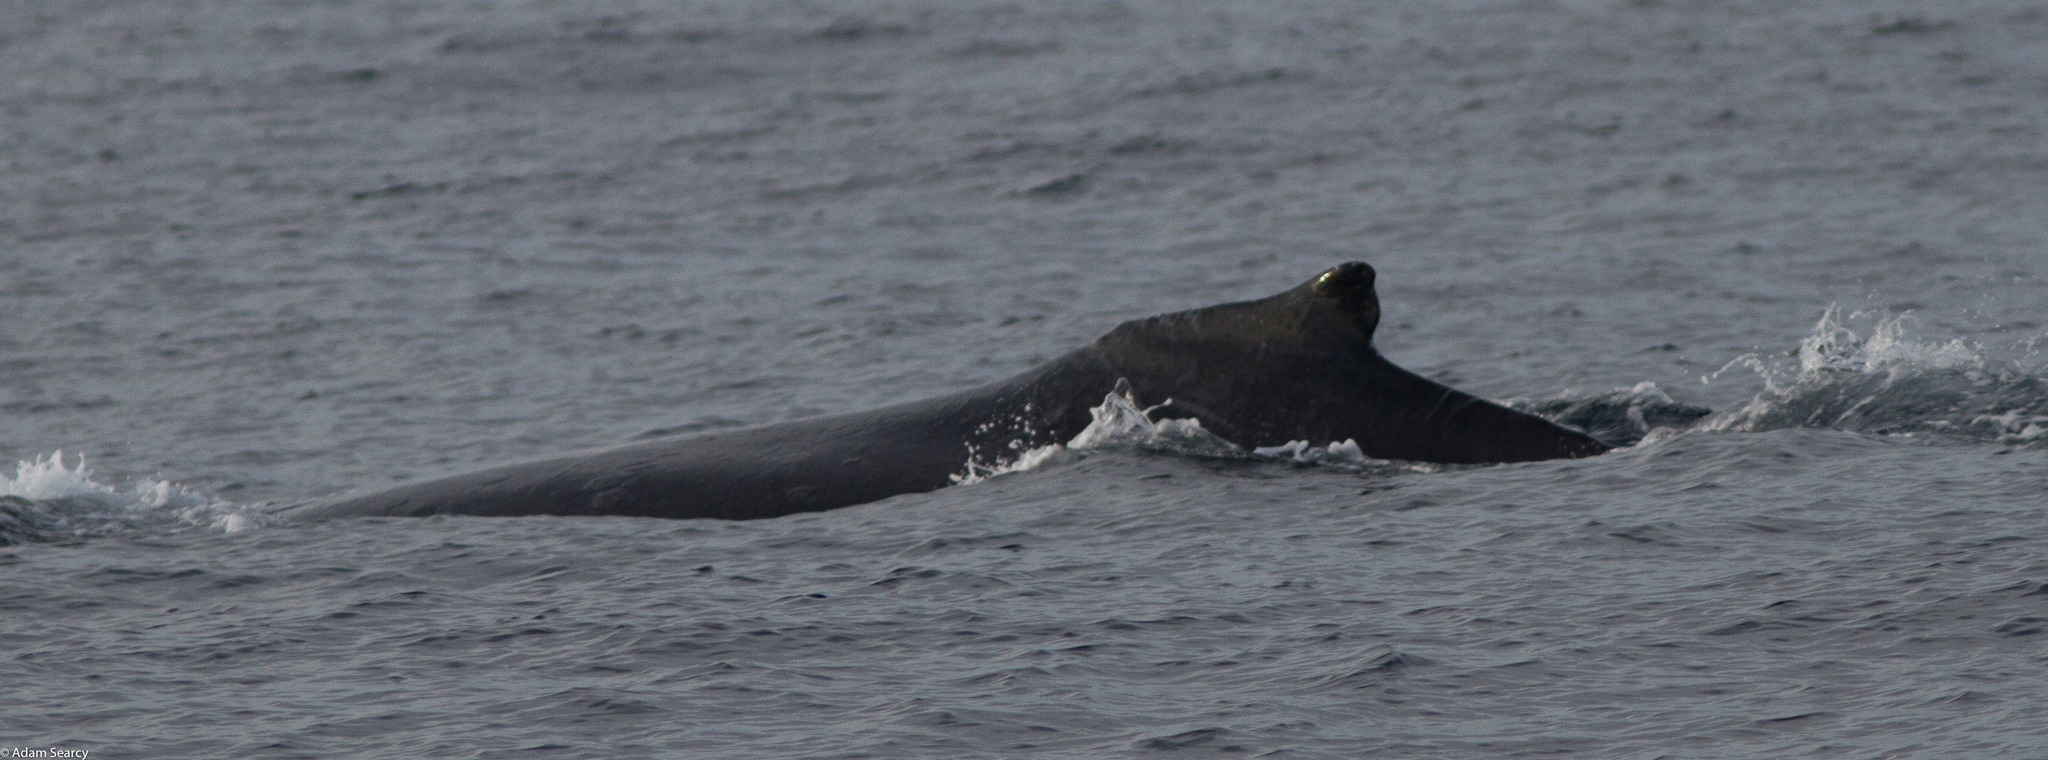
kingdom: Animalia
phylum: Chordata
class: Mammalia
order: Cetacea
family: Balaenopteridae
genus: Megaptera
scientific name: Megaptera novaeangliae
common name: Humpback whale
